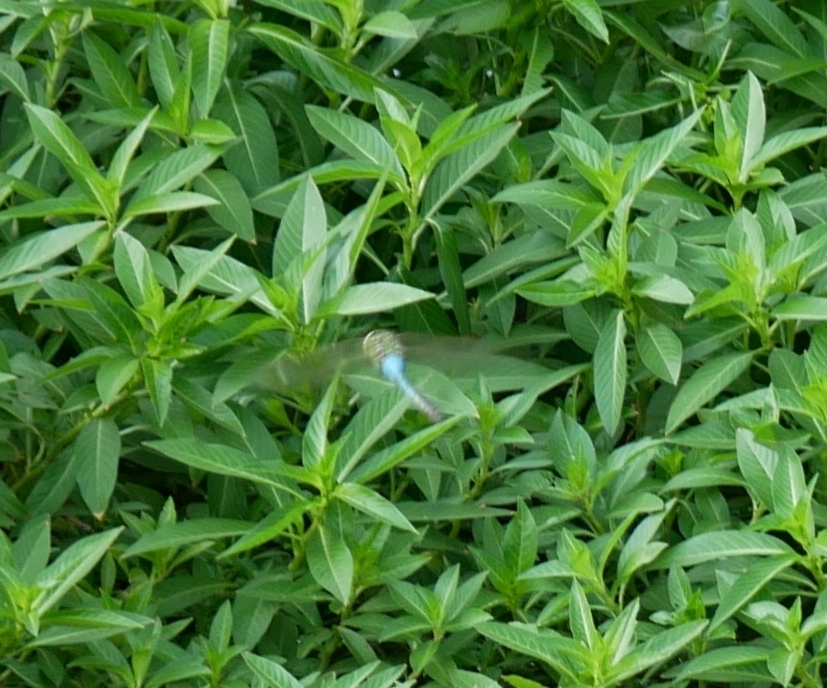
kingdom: Animalia
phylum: Arthropoda
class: Insecta
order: Odonata
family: Aeshnidae
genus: Anax
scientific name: Anax junius
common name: Common green darner
